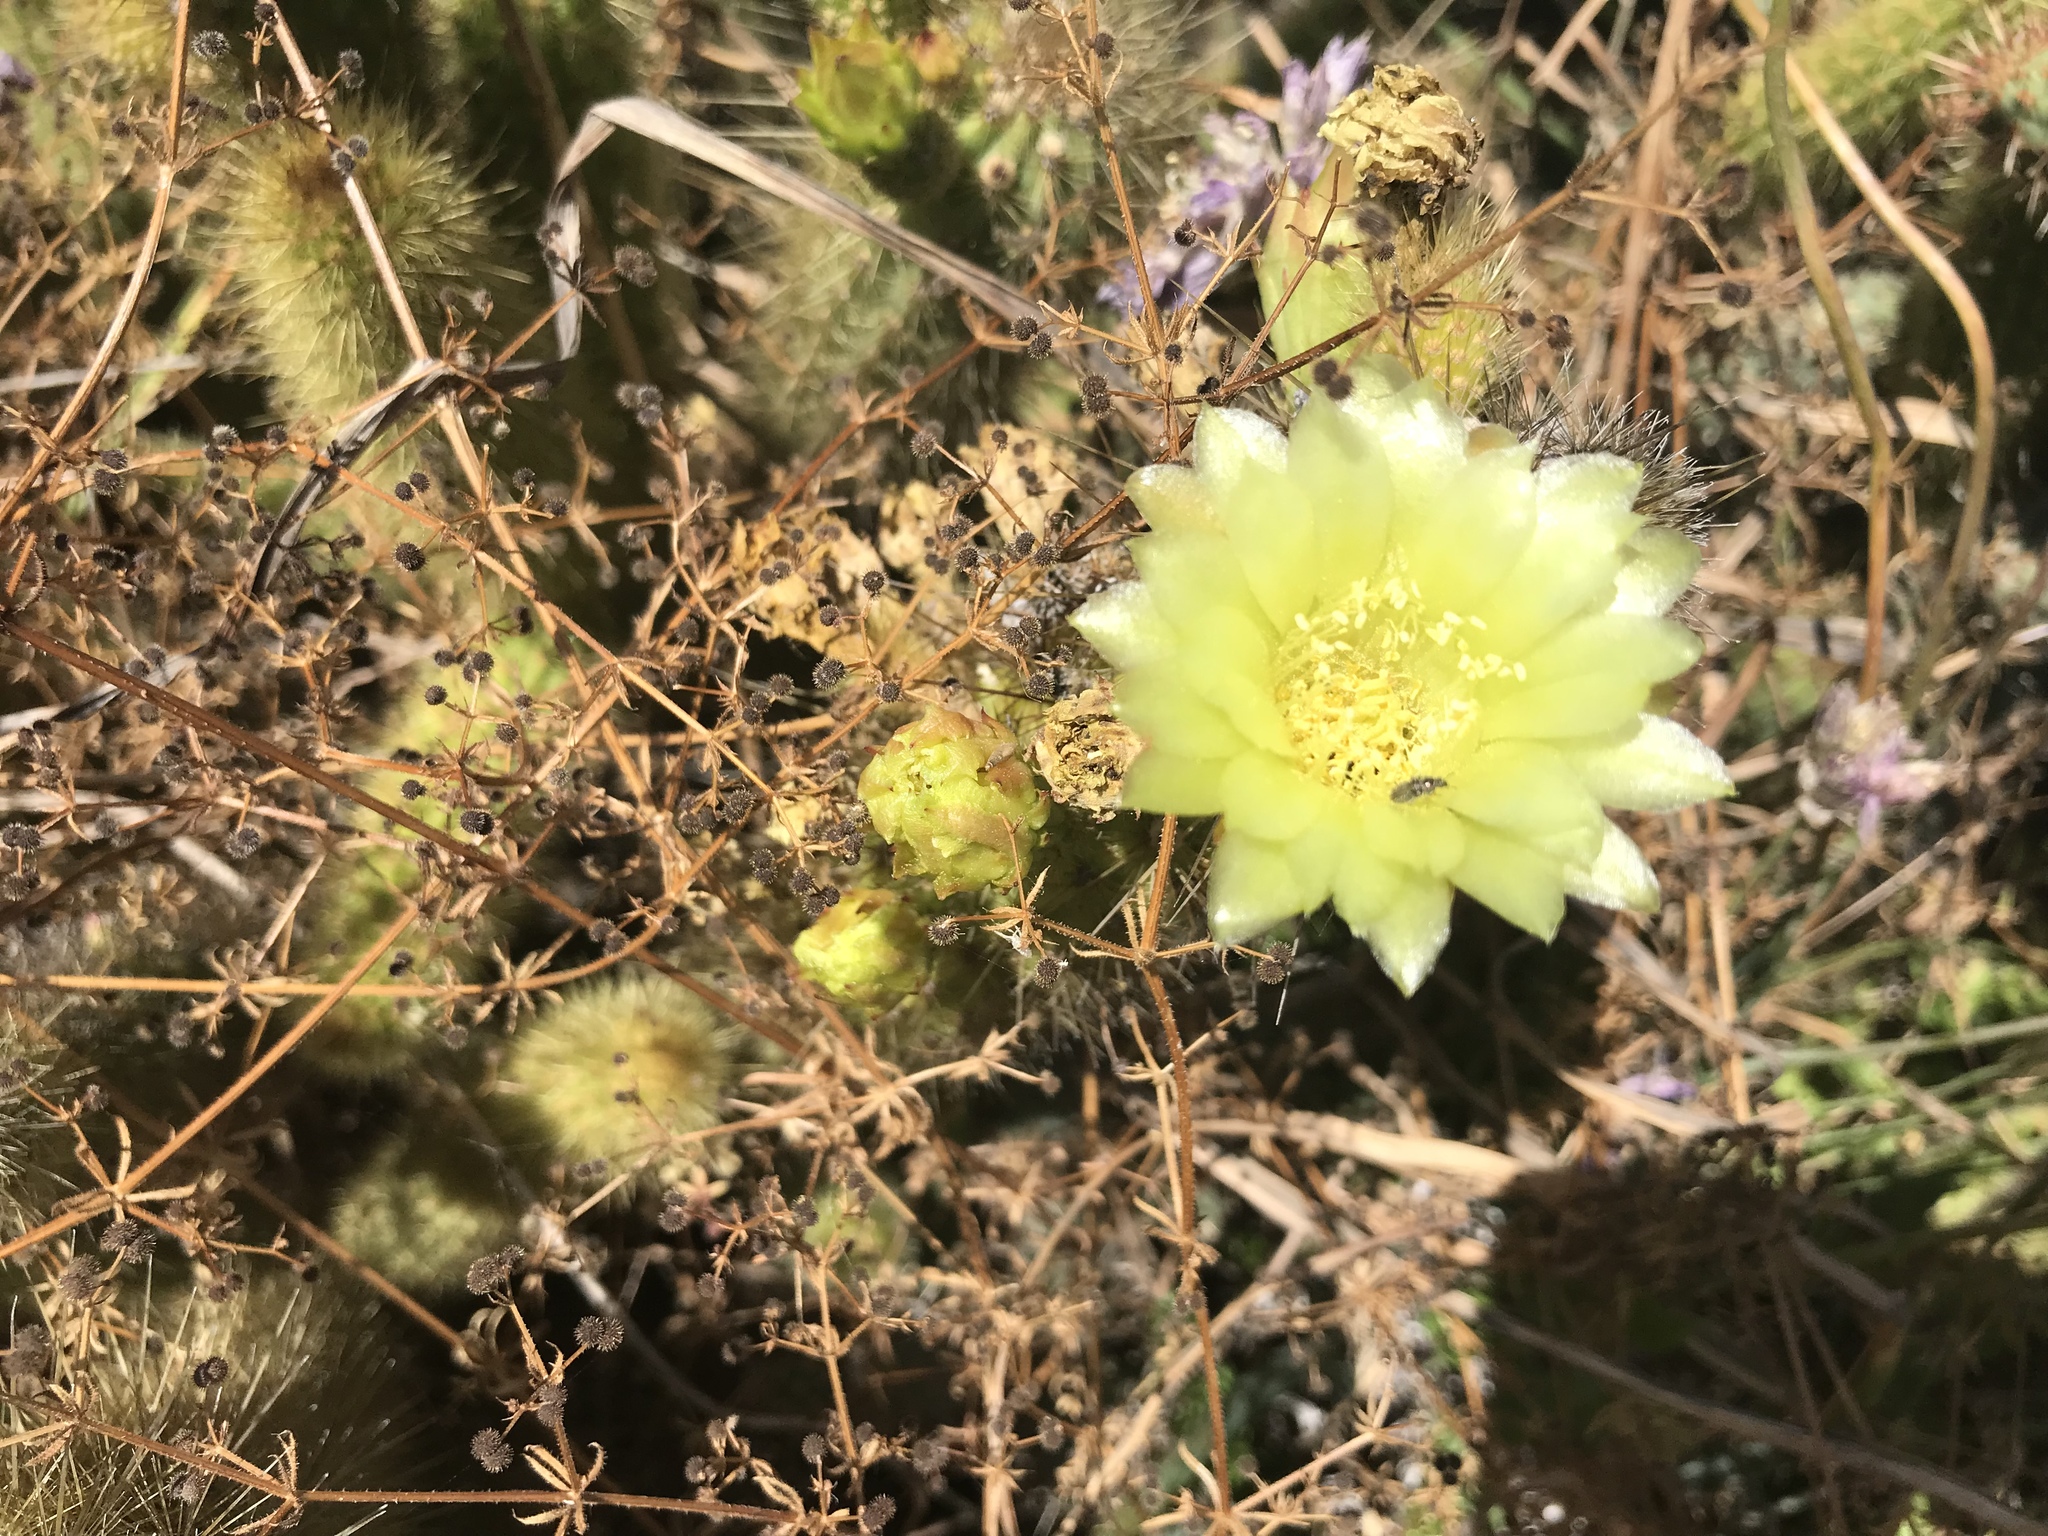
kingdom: Plantae
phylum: Tracheophyta
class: Magnoliopsida
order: Caryophyllales
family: Cactaceae
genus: Bergerocactus
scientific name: Bergerocactus emoryi
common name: Golden snakecactus
